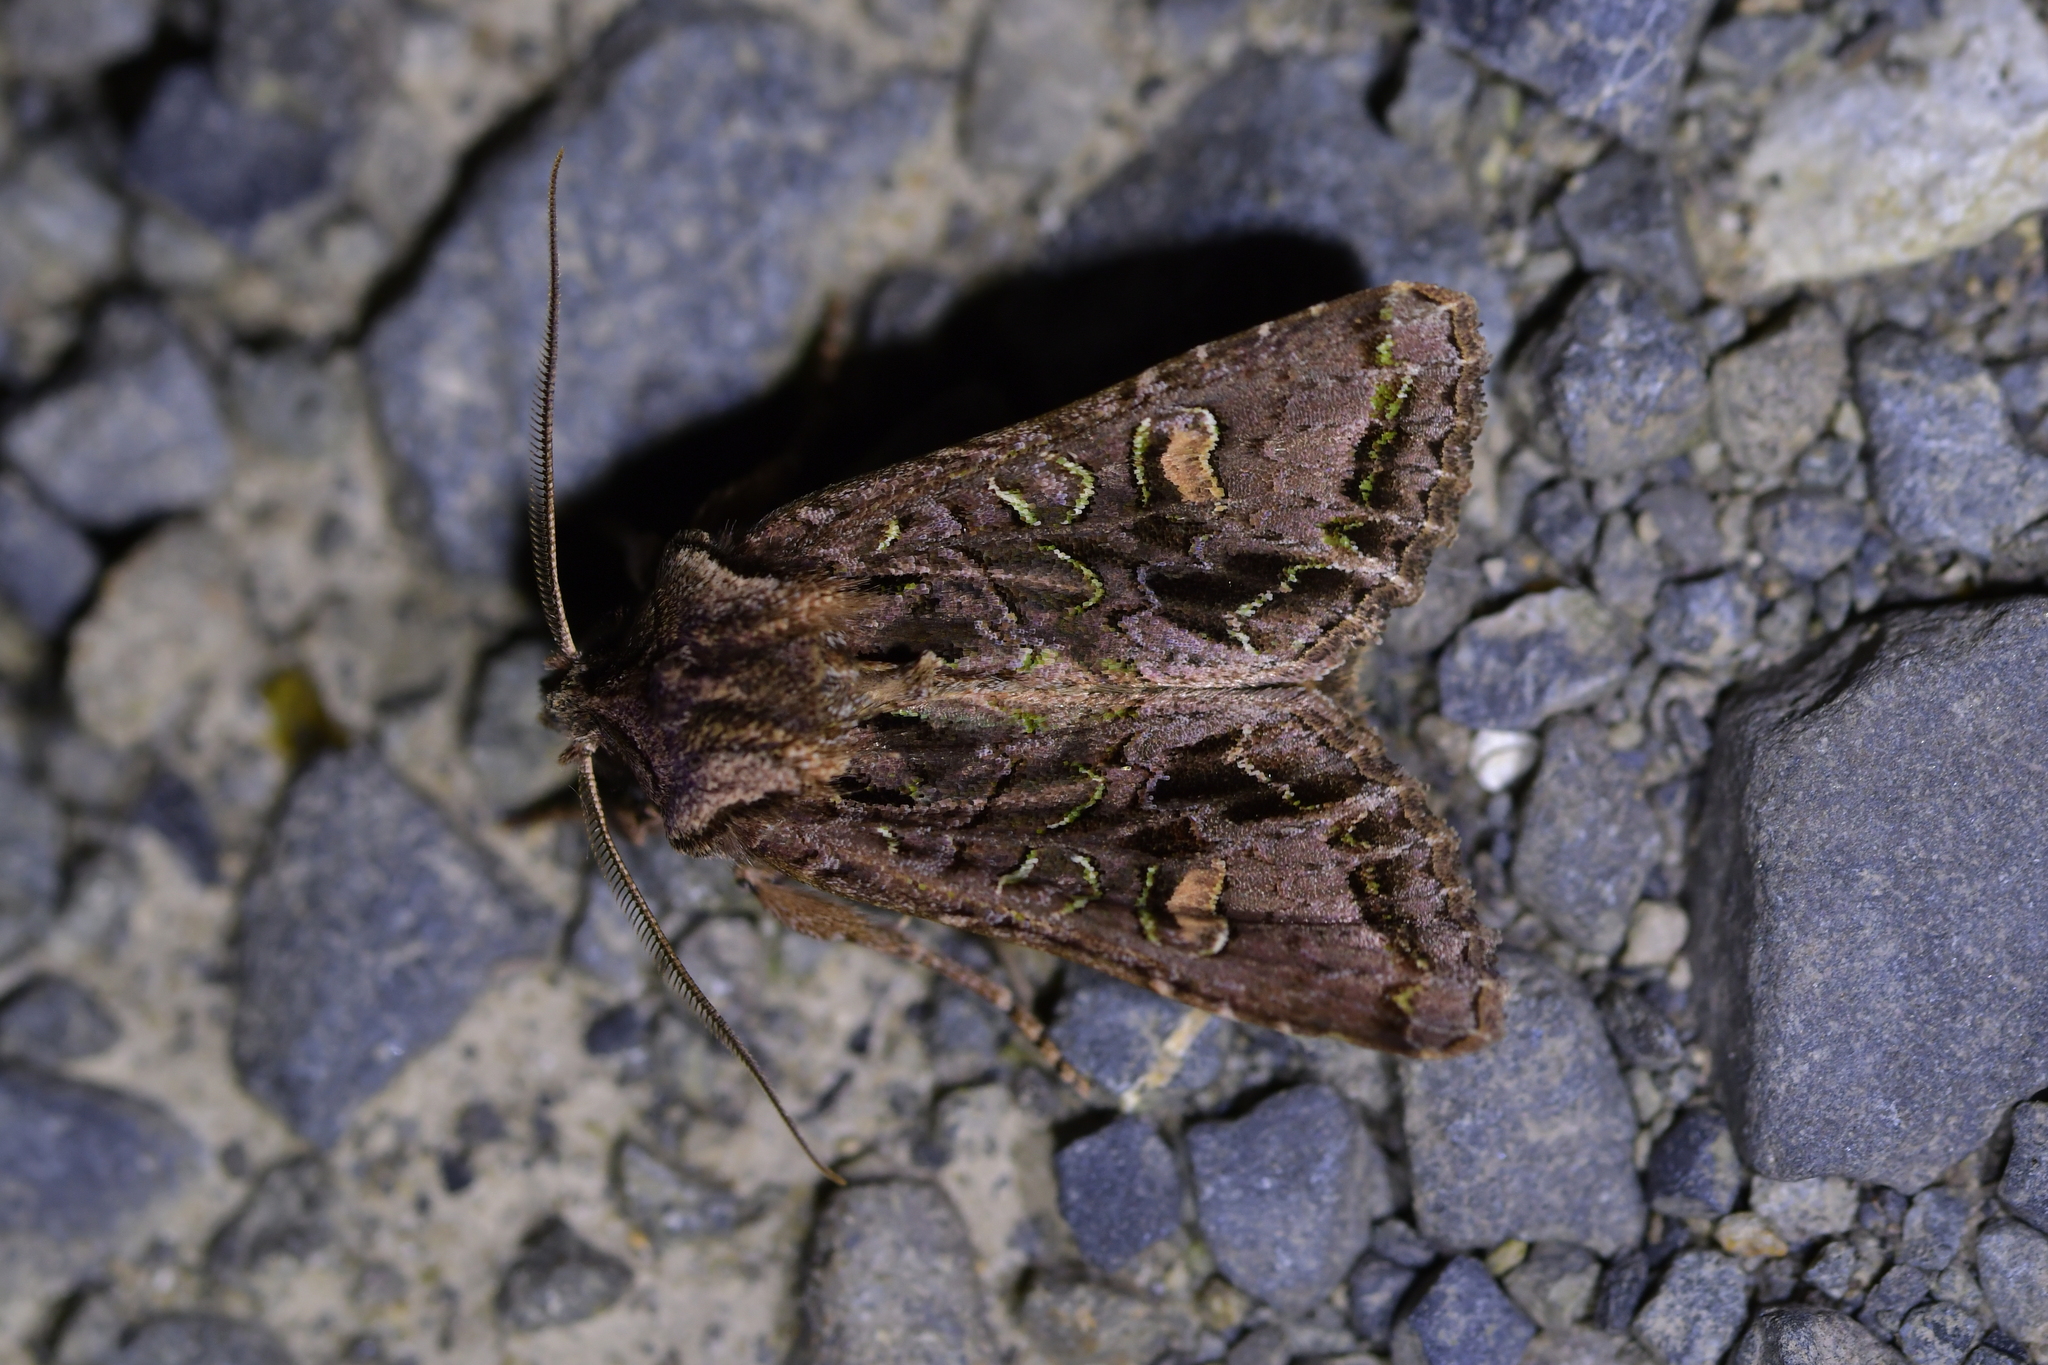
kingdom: Animalia
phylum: Arthropoda
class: Insecta
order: Lepidoptera
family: Noctuidae
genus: Ichneutica
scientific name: Ichneutica insignis
